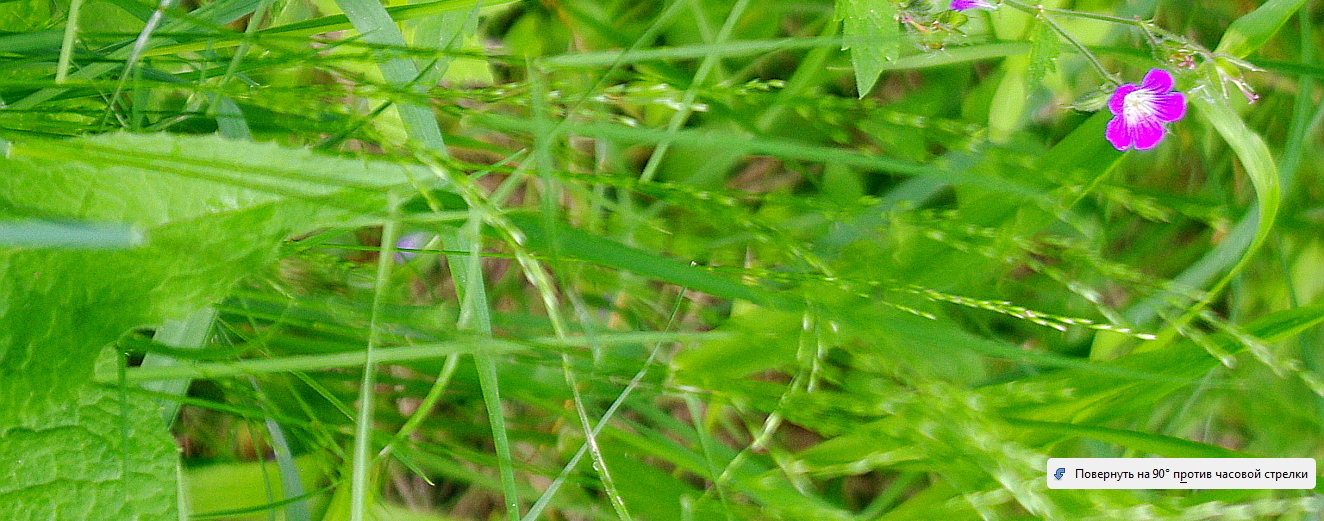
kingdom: Plantae
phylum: Tracheophyta
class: Liliopsida
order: Poales
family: Poaceae
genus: Poa
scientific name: Poa palustris
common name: Swamp meadow-grass
